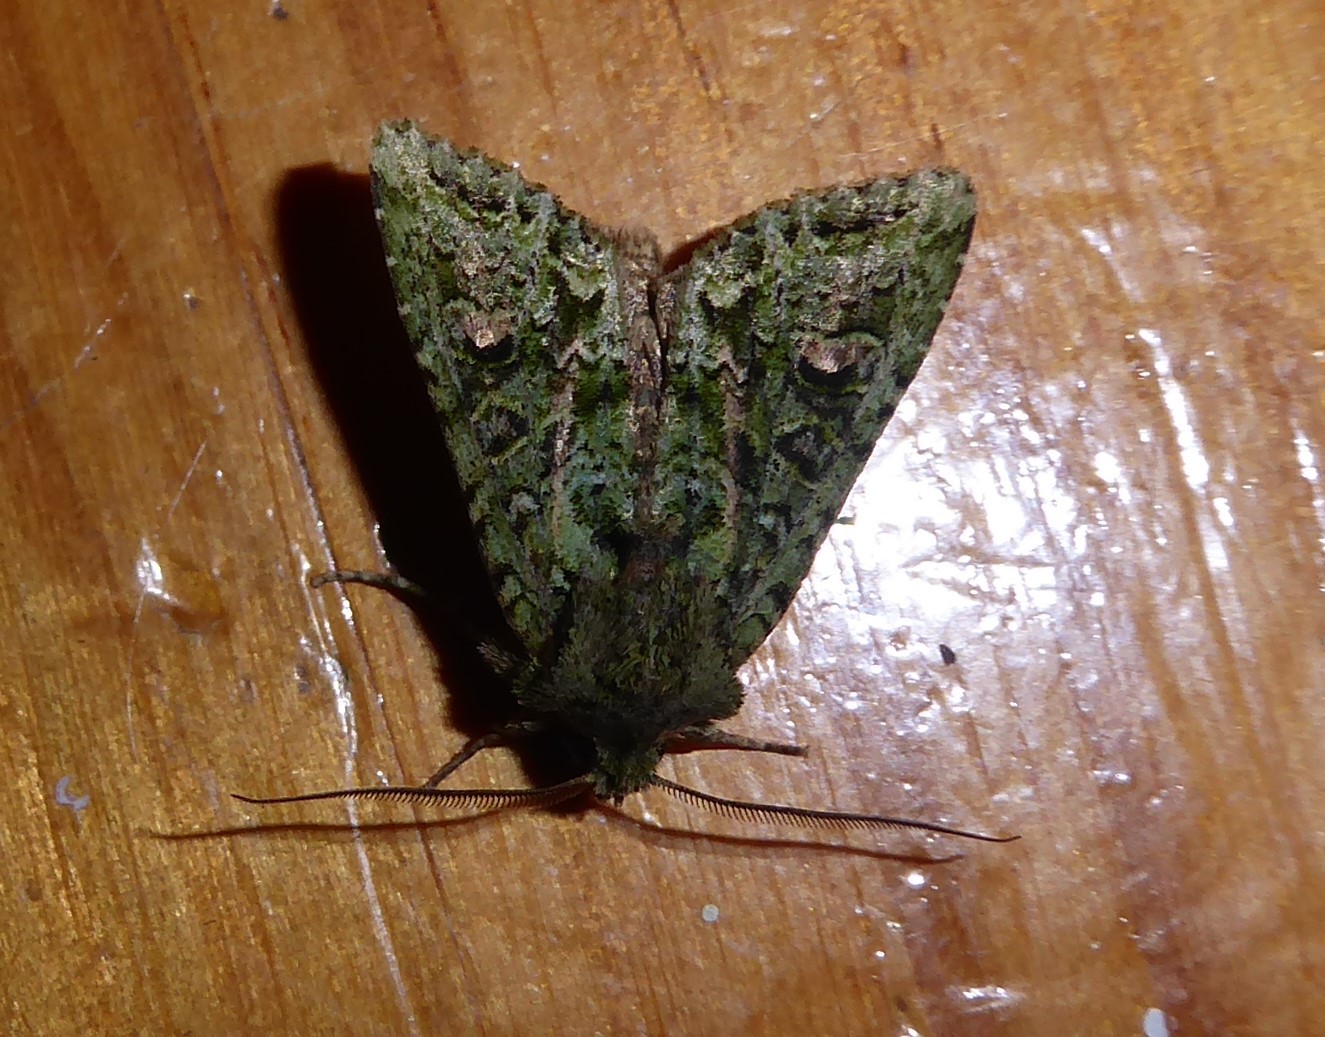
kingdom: Animalia
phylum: Arthropoda
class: Insecta
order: Lepidoptera
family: Noctuidae
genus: Ichneutica
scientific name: Ichneutica
